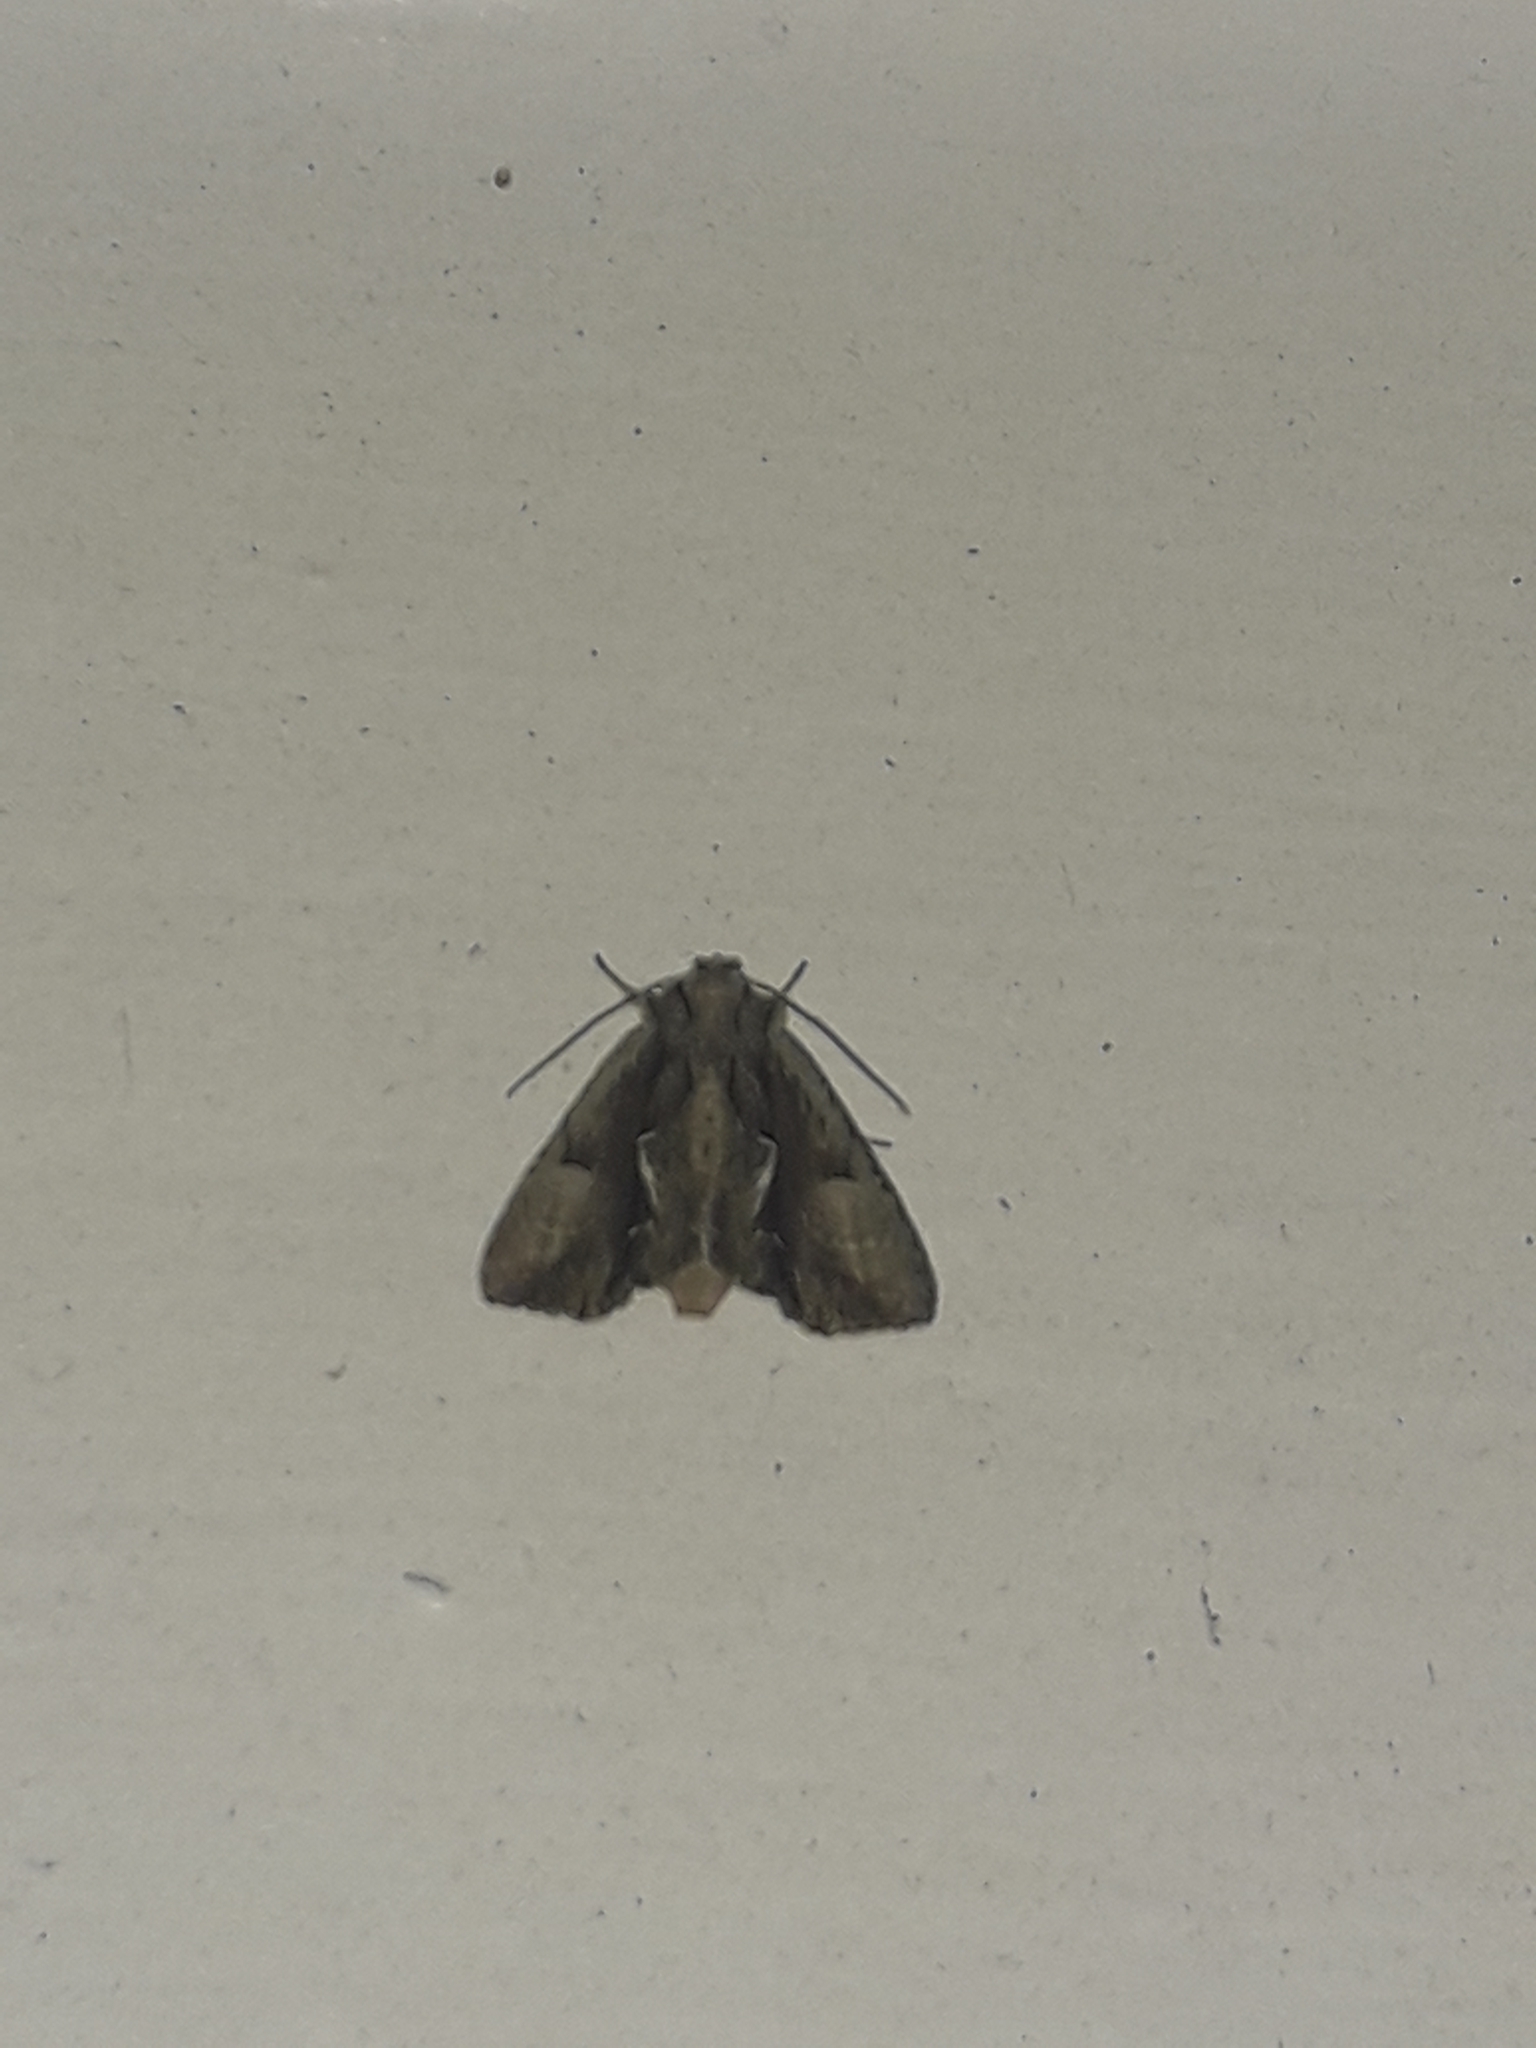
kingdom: Animalia
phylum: Arthropoda
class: Insecta
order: Lepidoptera
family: Noctuidae
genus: Meterana
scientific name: Meterana decorata
